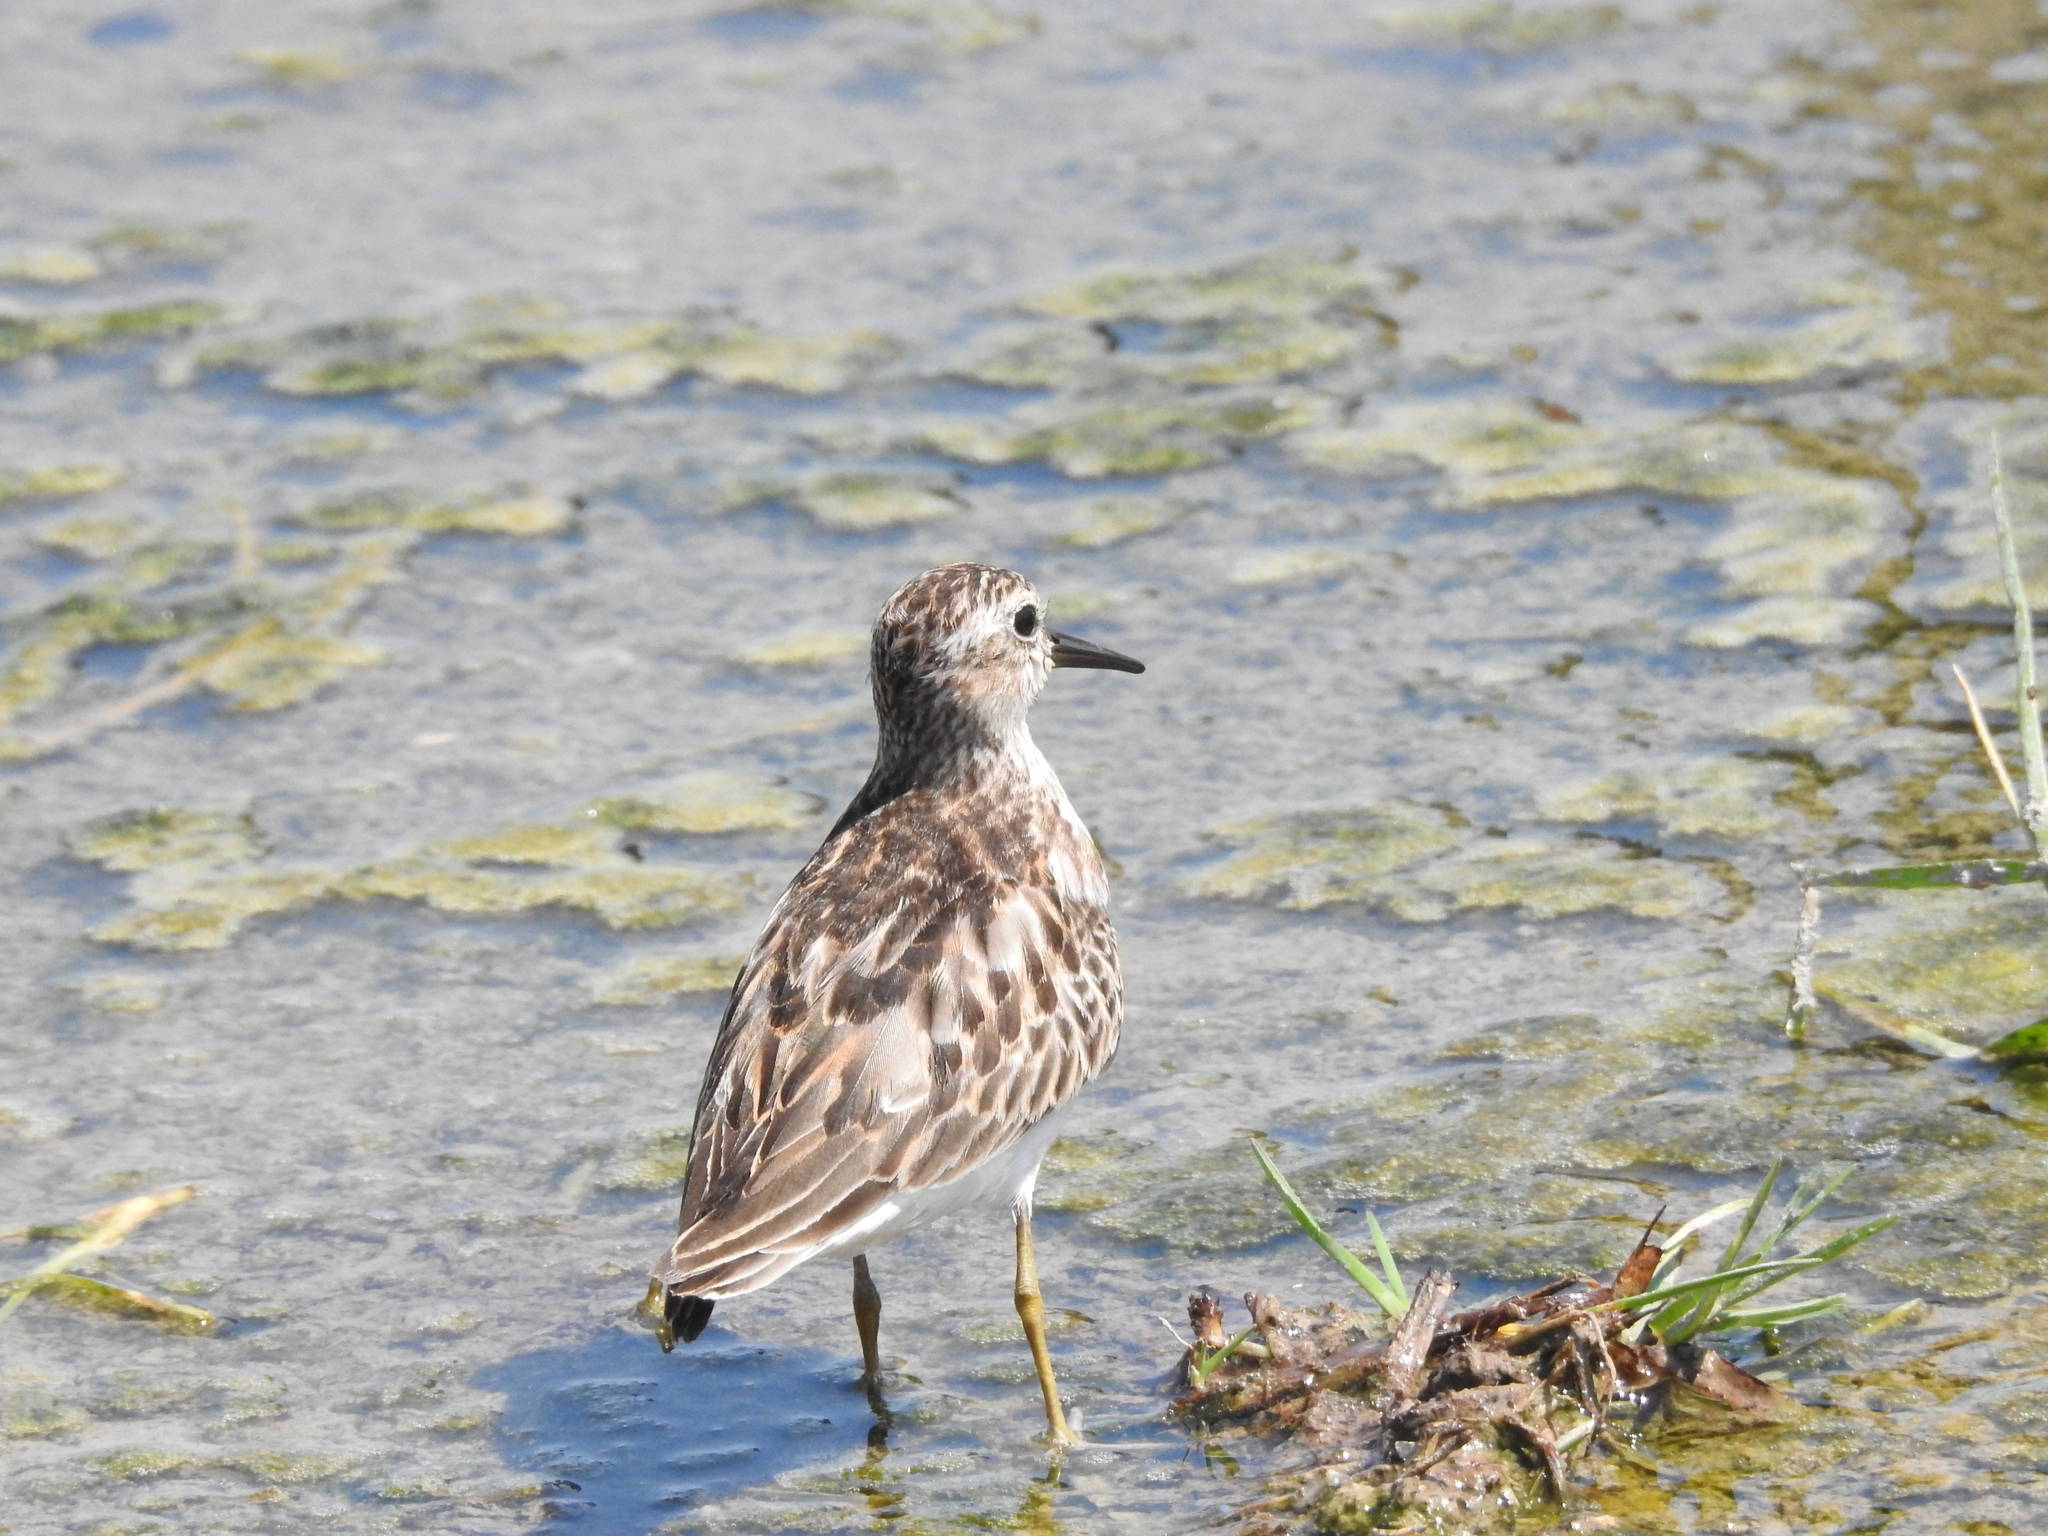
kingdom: Animalia
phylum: Chordata
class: Aves
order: Charadriiformes
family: Scolopacidae
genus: Calidris
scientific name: Calidris minutilla
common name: Least sandpiper
